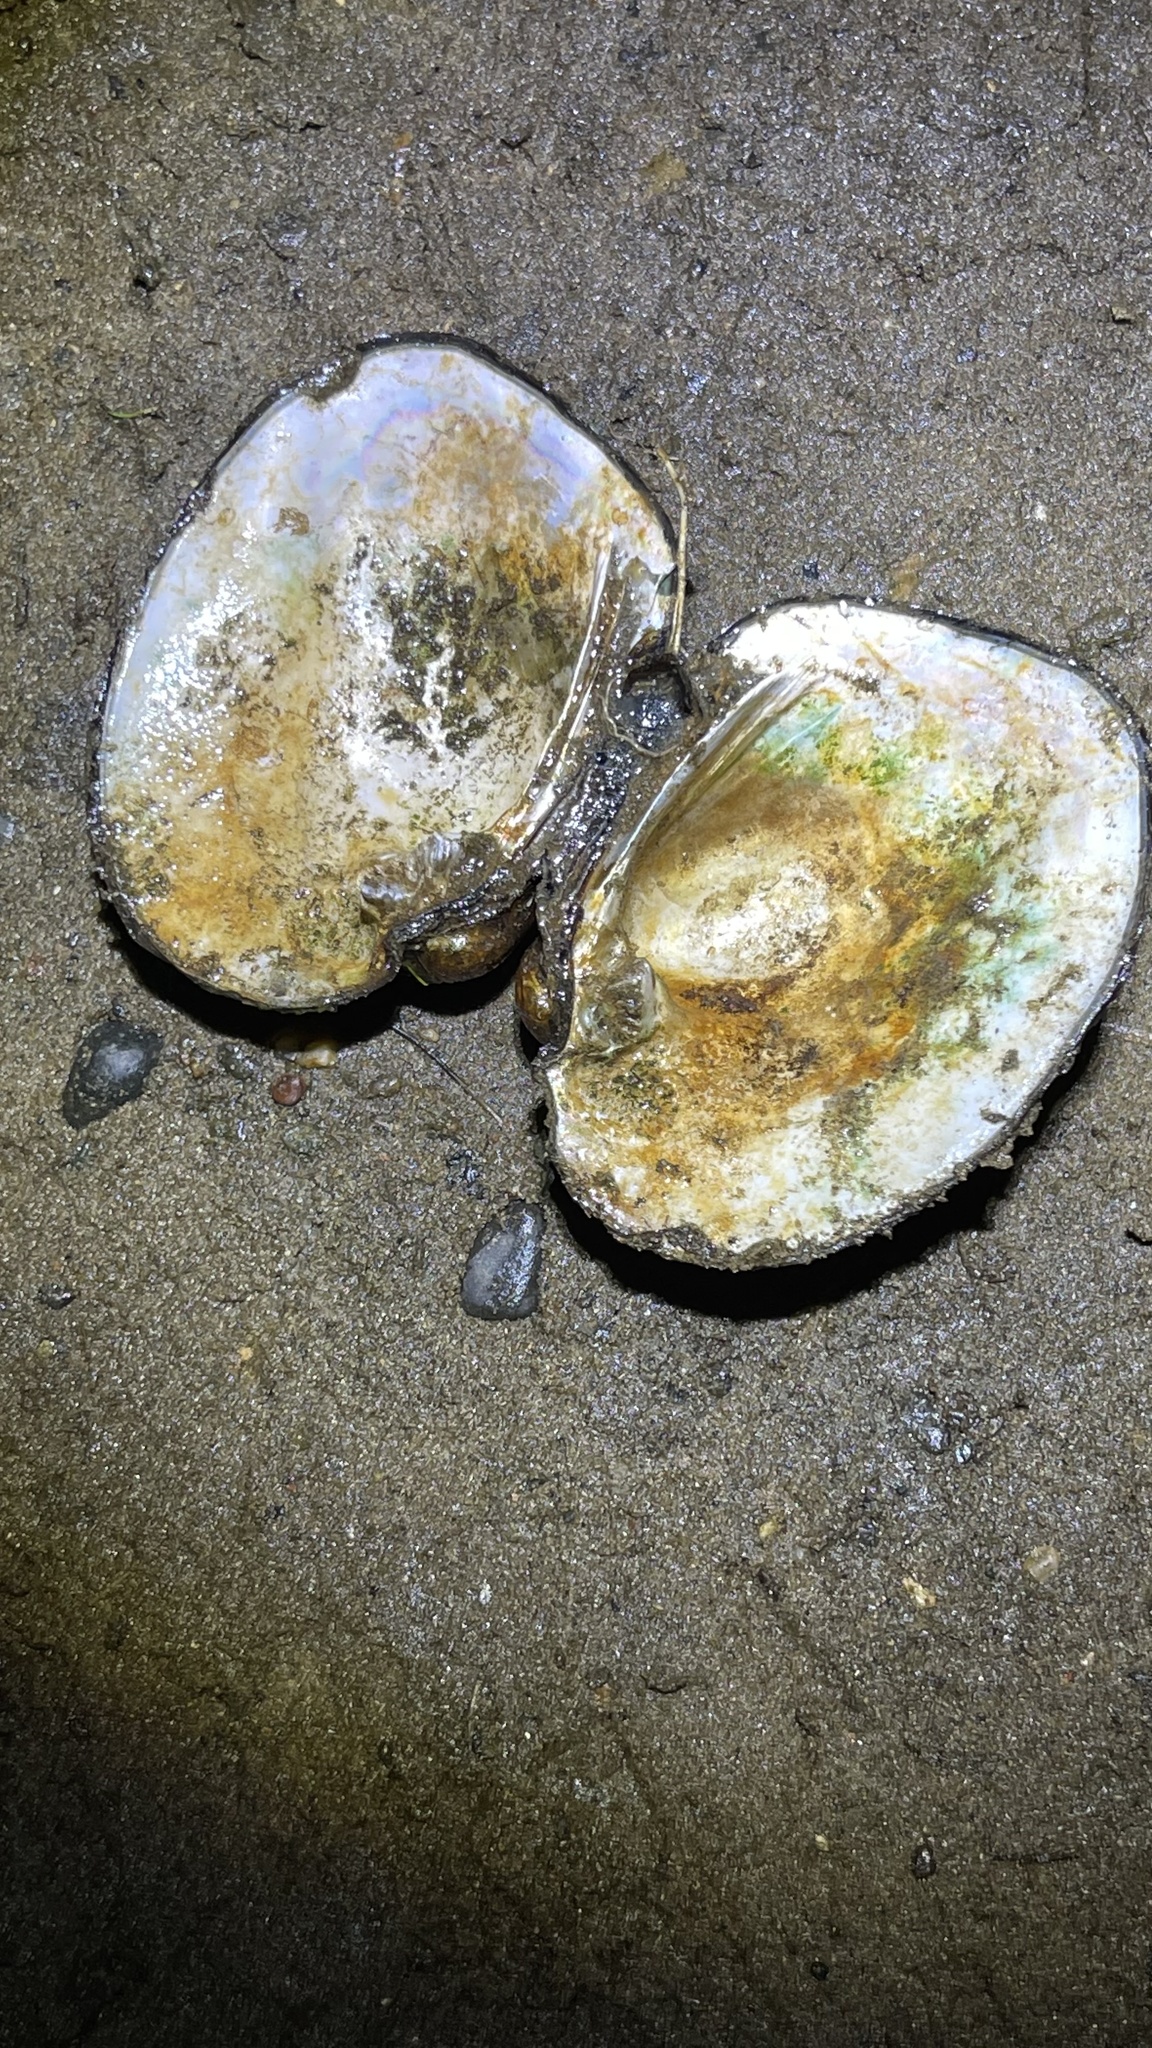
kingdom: Animalia
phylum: Mollusca
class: Bivalvia
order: Unionida
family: Unionidae
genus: Amblema
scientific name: Amblema plicata
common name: Threeridge
